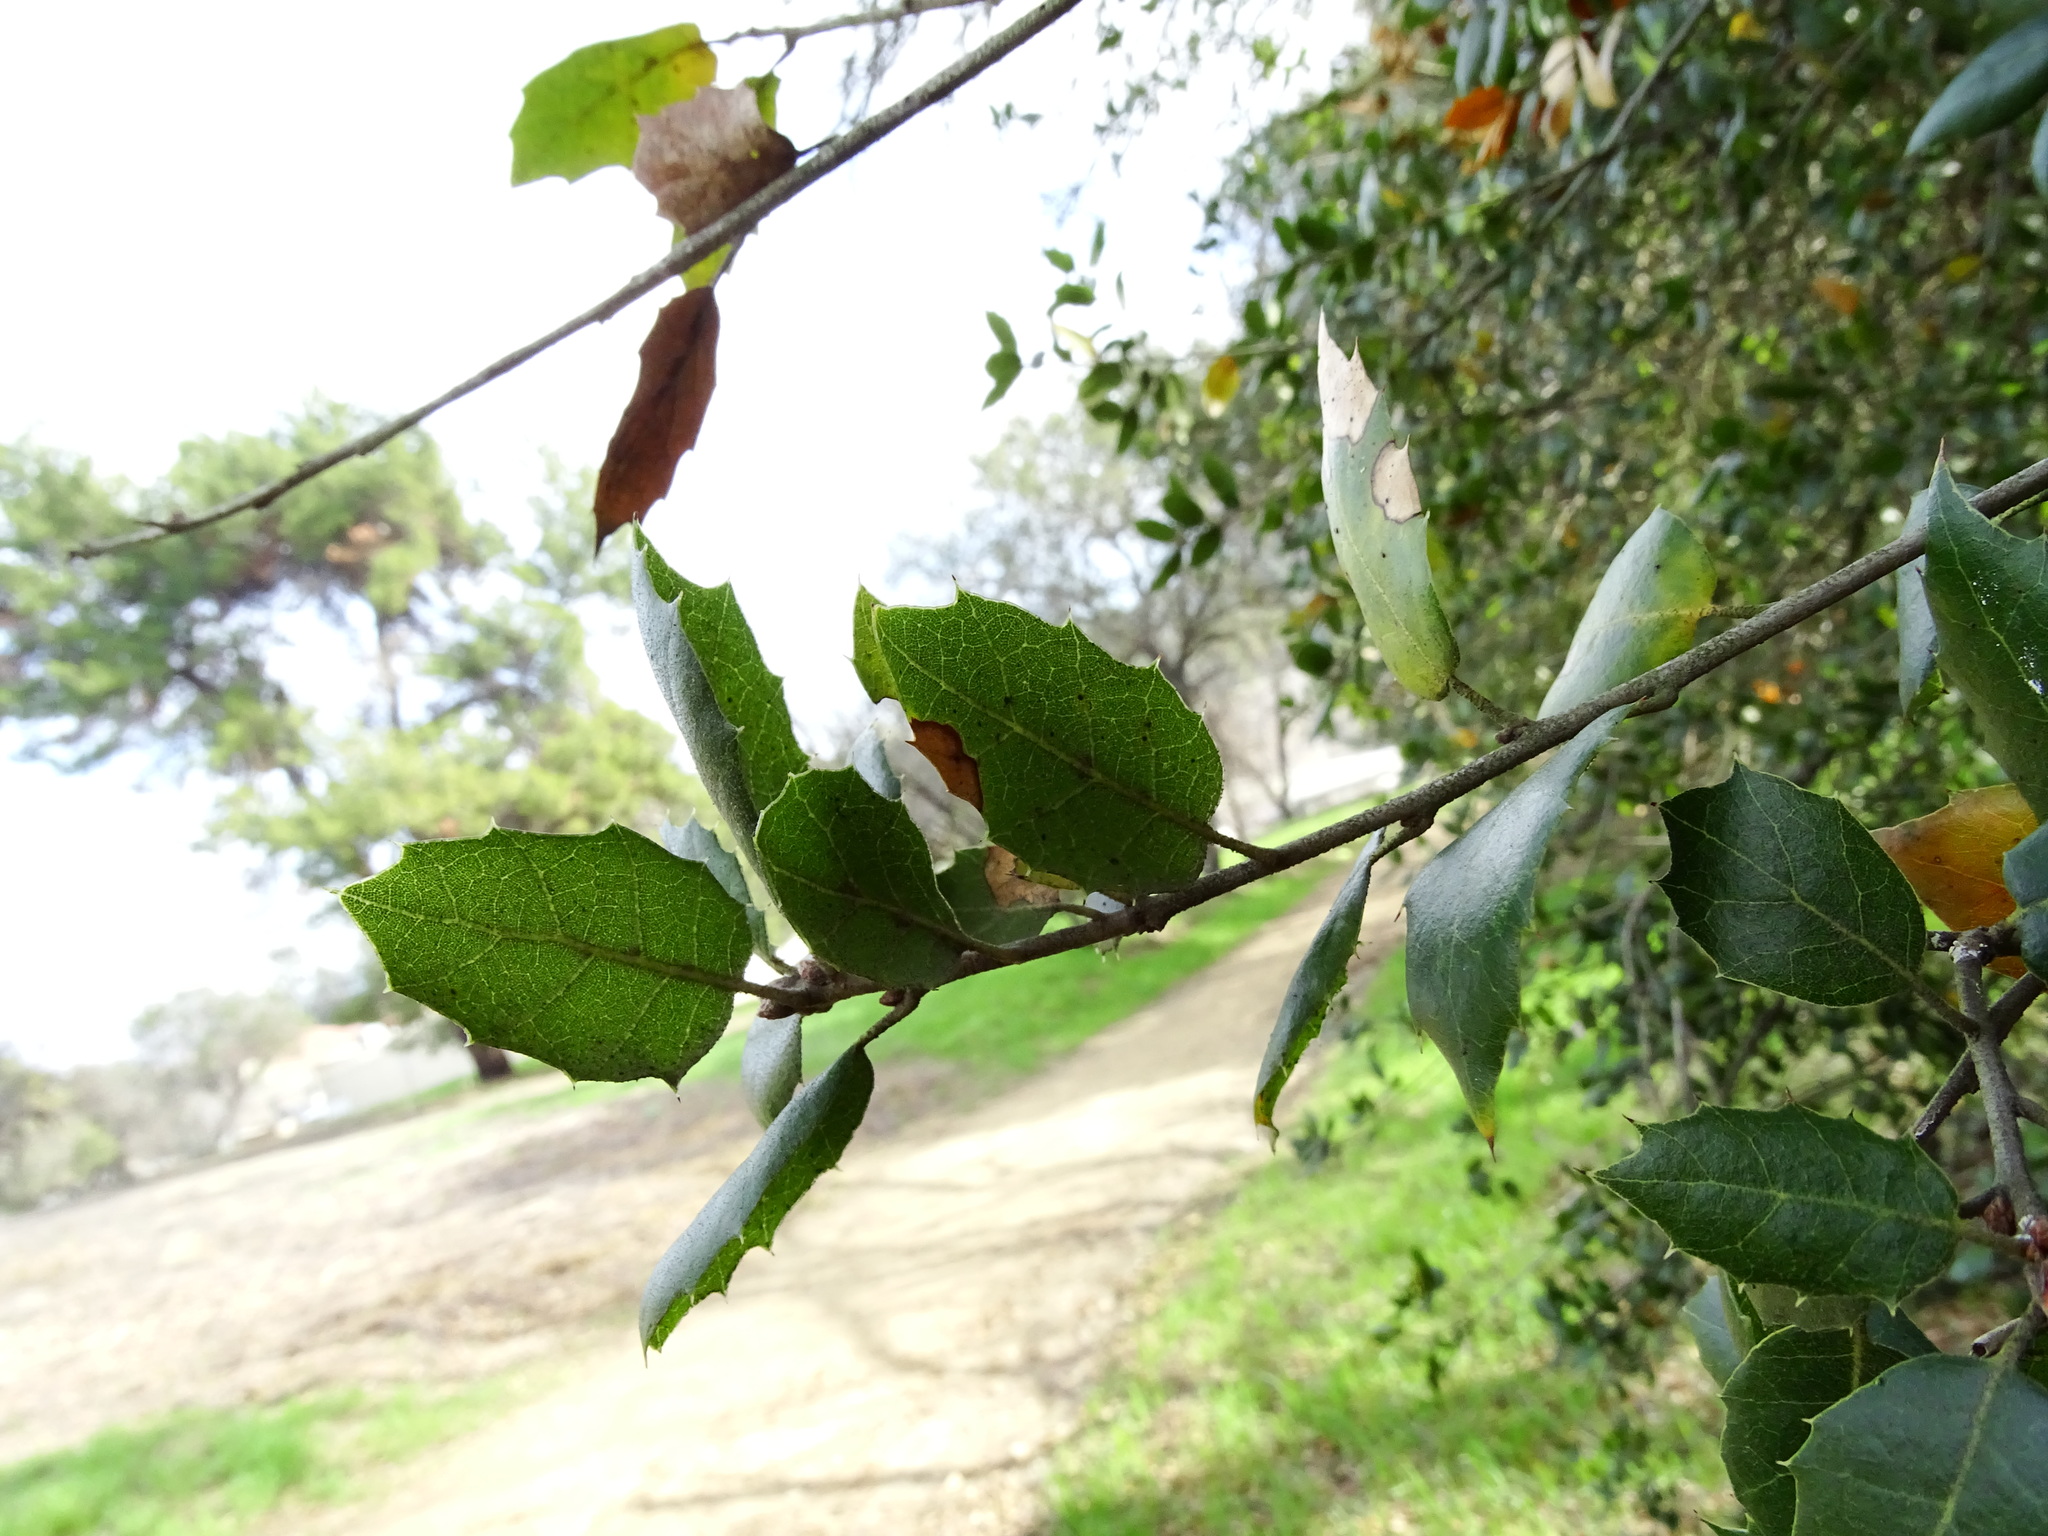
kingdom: Plantae
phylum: Tracheophyta
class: Magnoliopsida
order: Fagales
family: Fagaceae
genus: Quercus
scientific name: Quercus agrifolia
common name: California live oak
